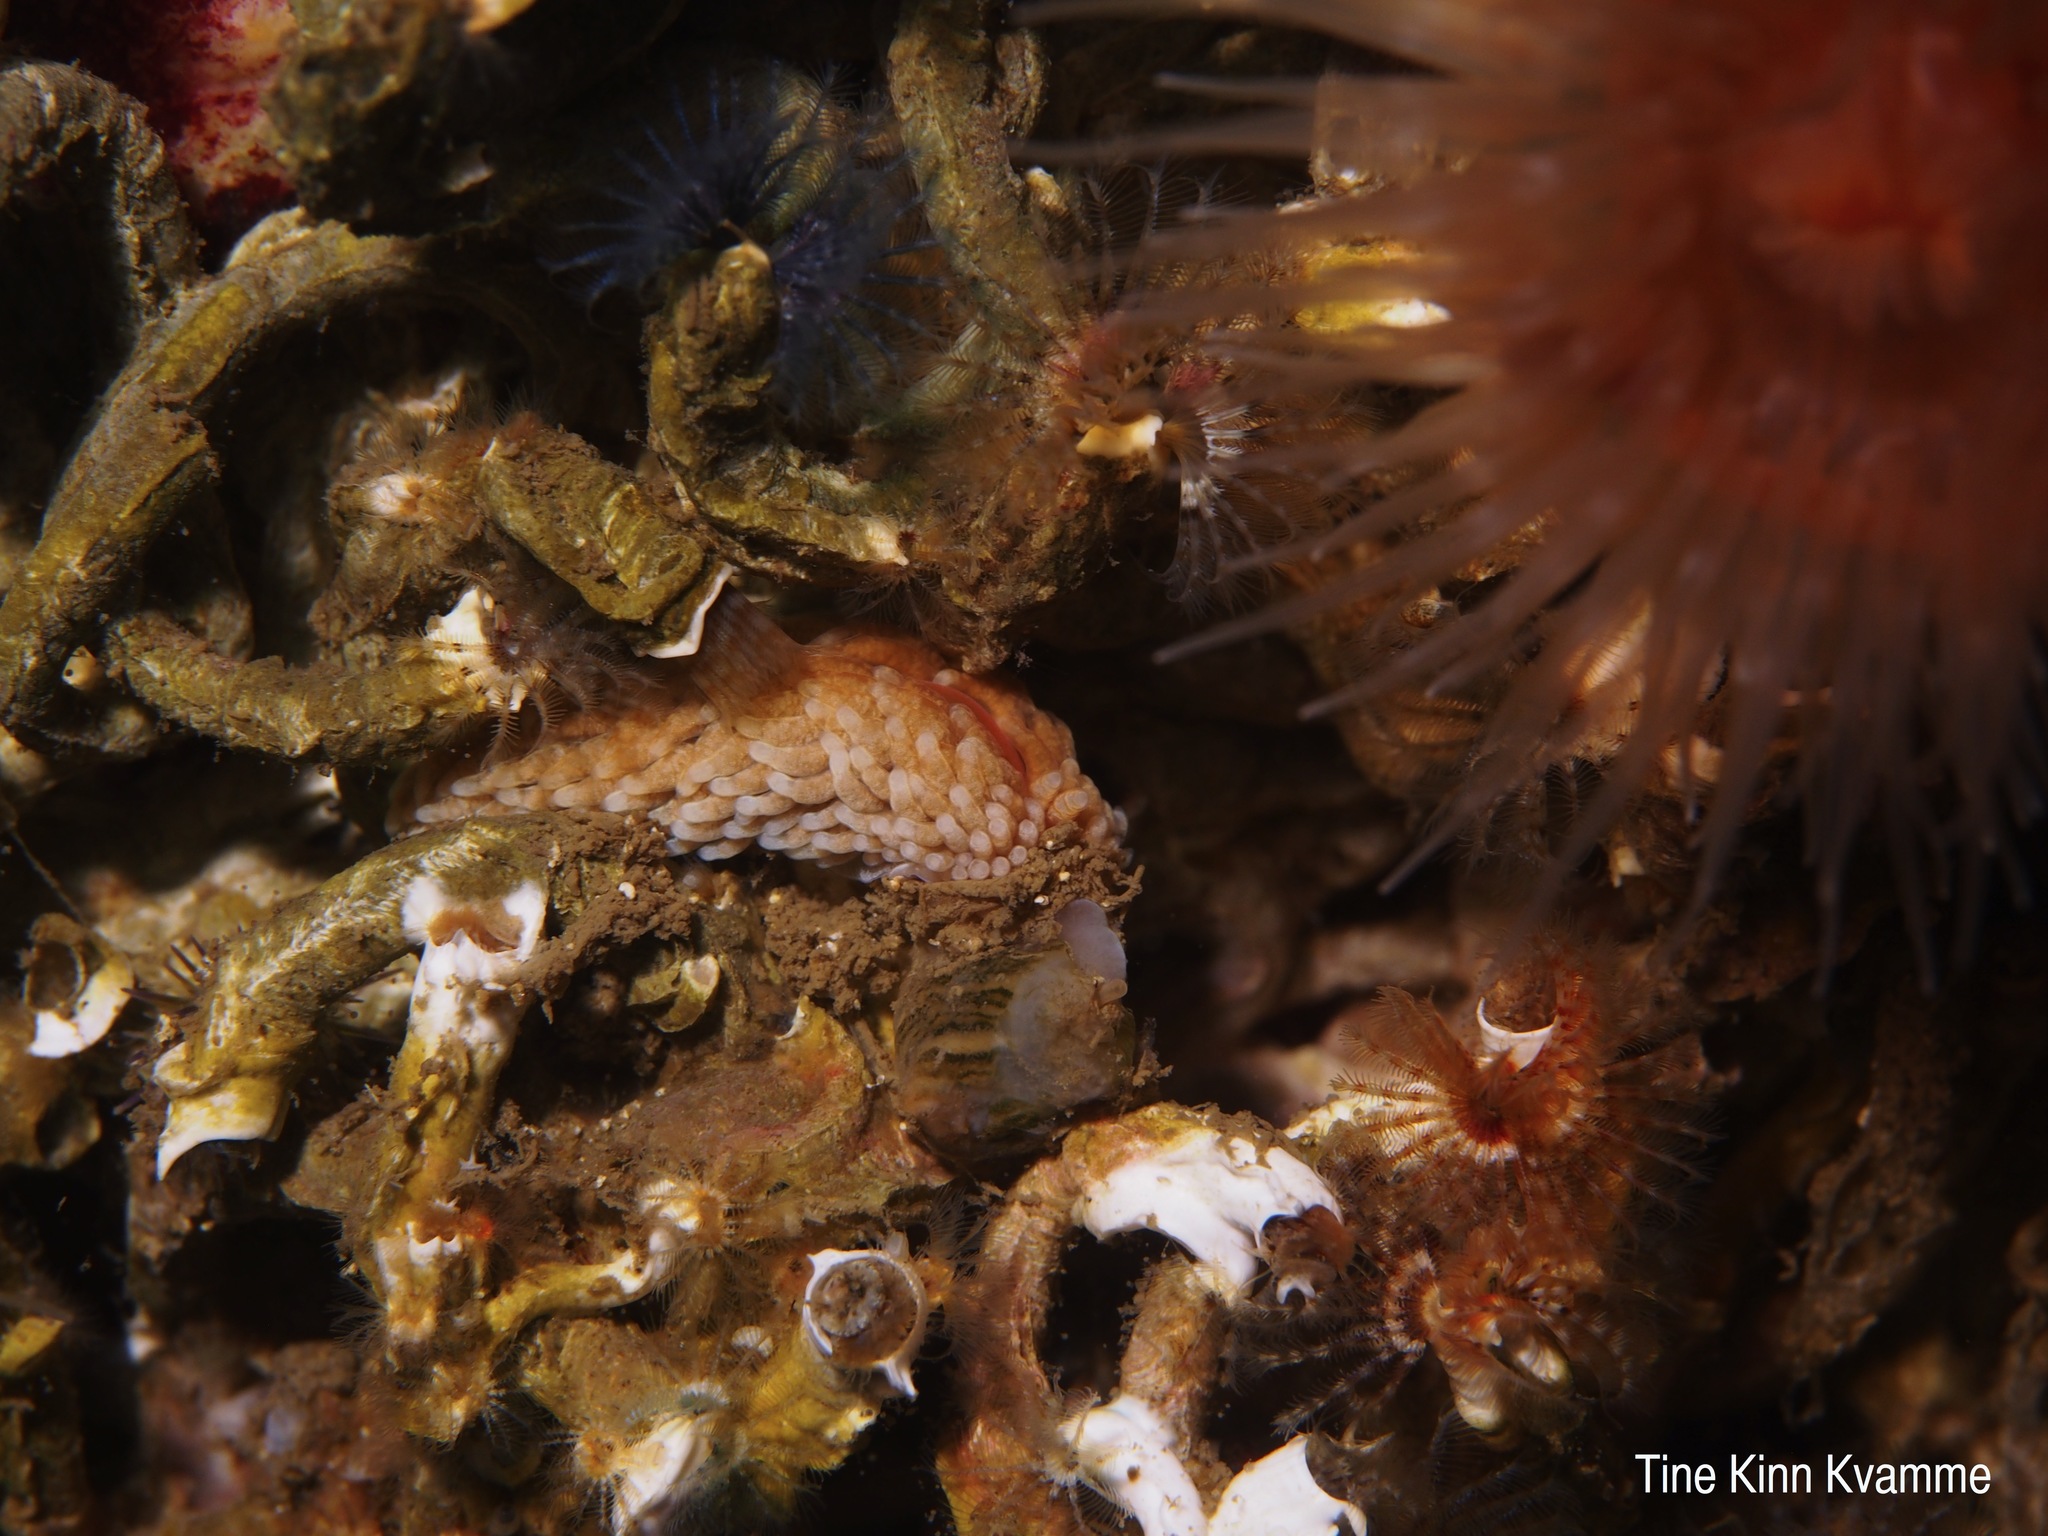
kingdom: Animalia
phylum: Mollusca
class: Gastropoda
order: Nudibranchia
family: Aeolidiidae
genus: Aeolidiella
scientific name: Aeolidiella glauca
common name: Orange-brown aeolid
